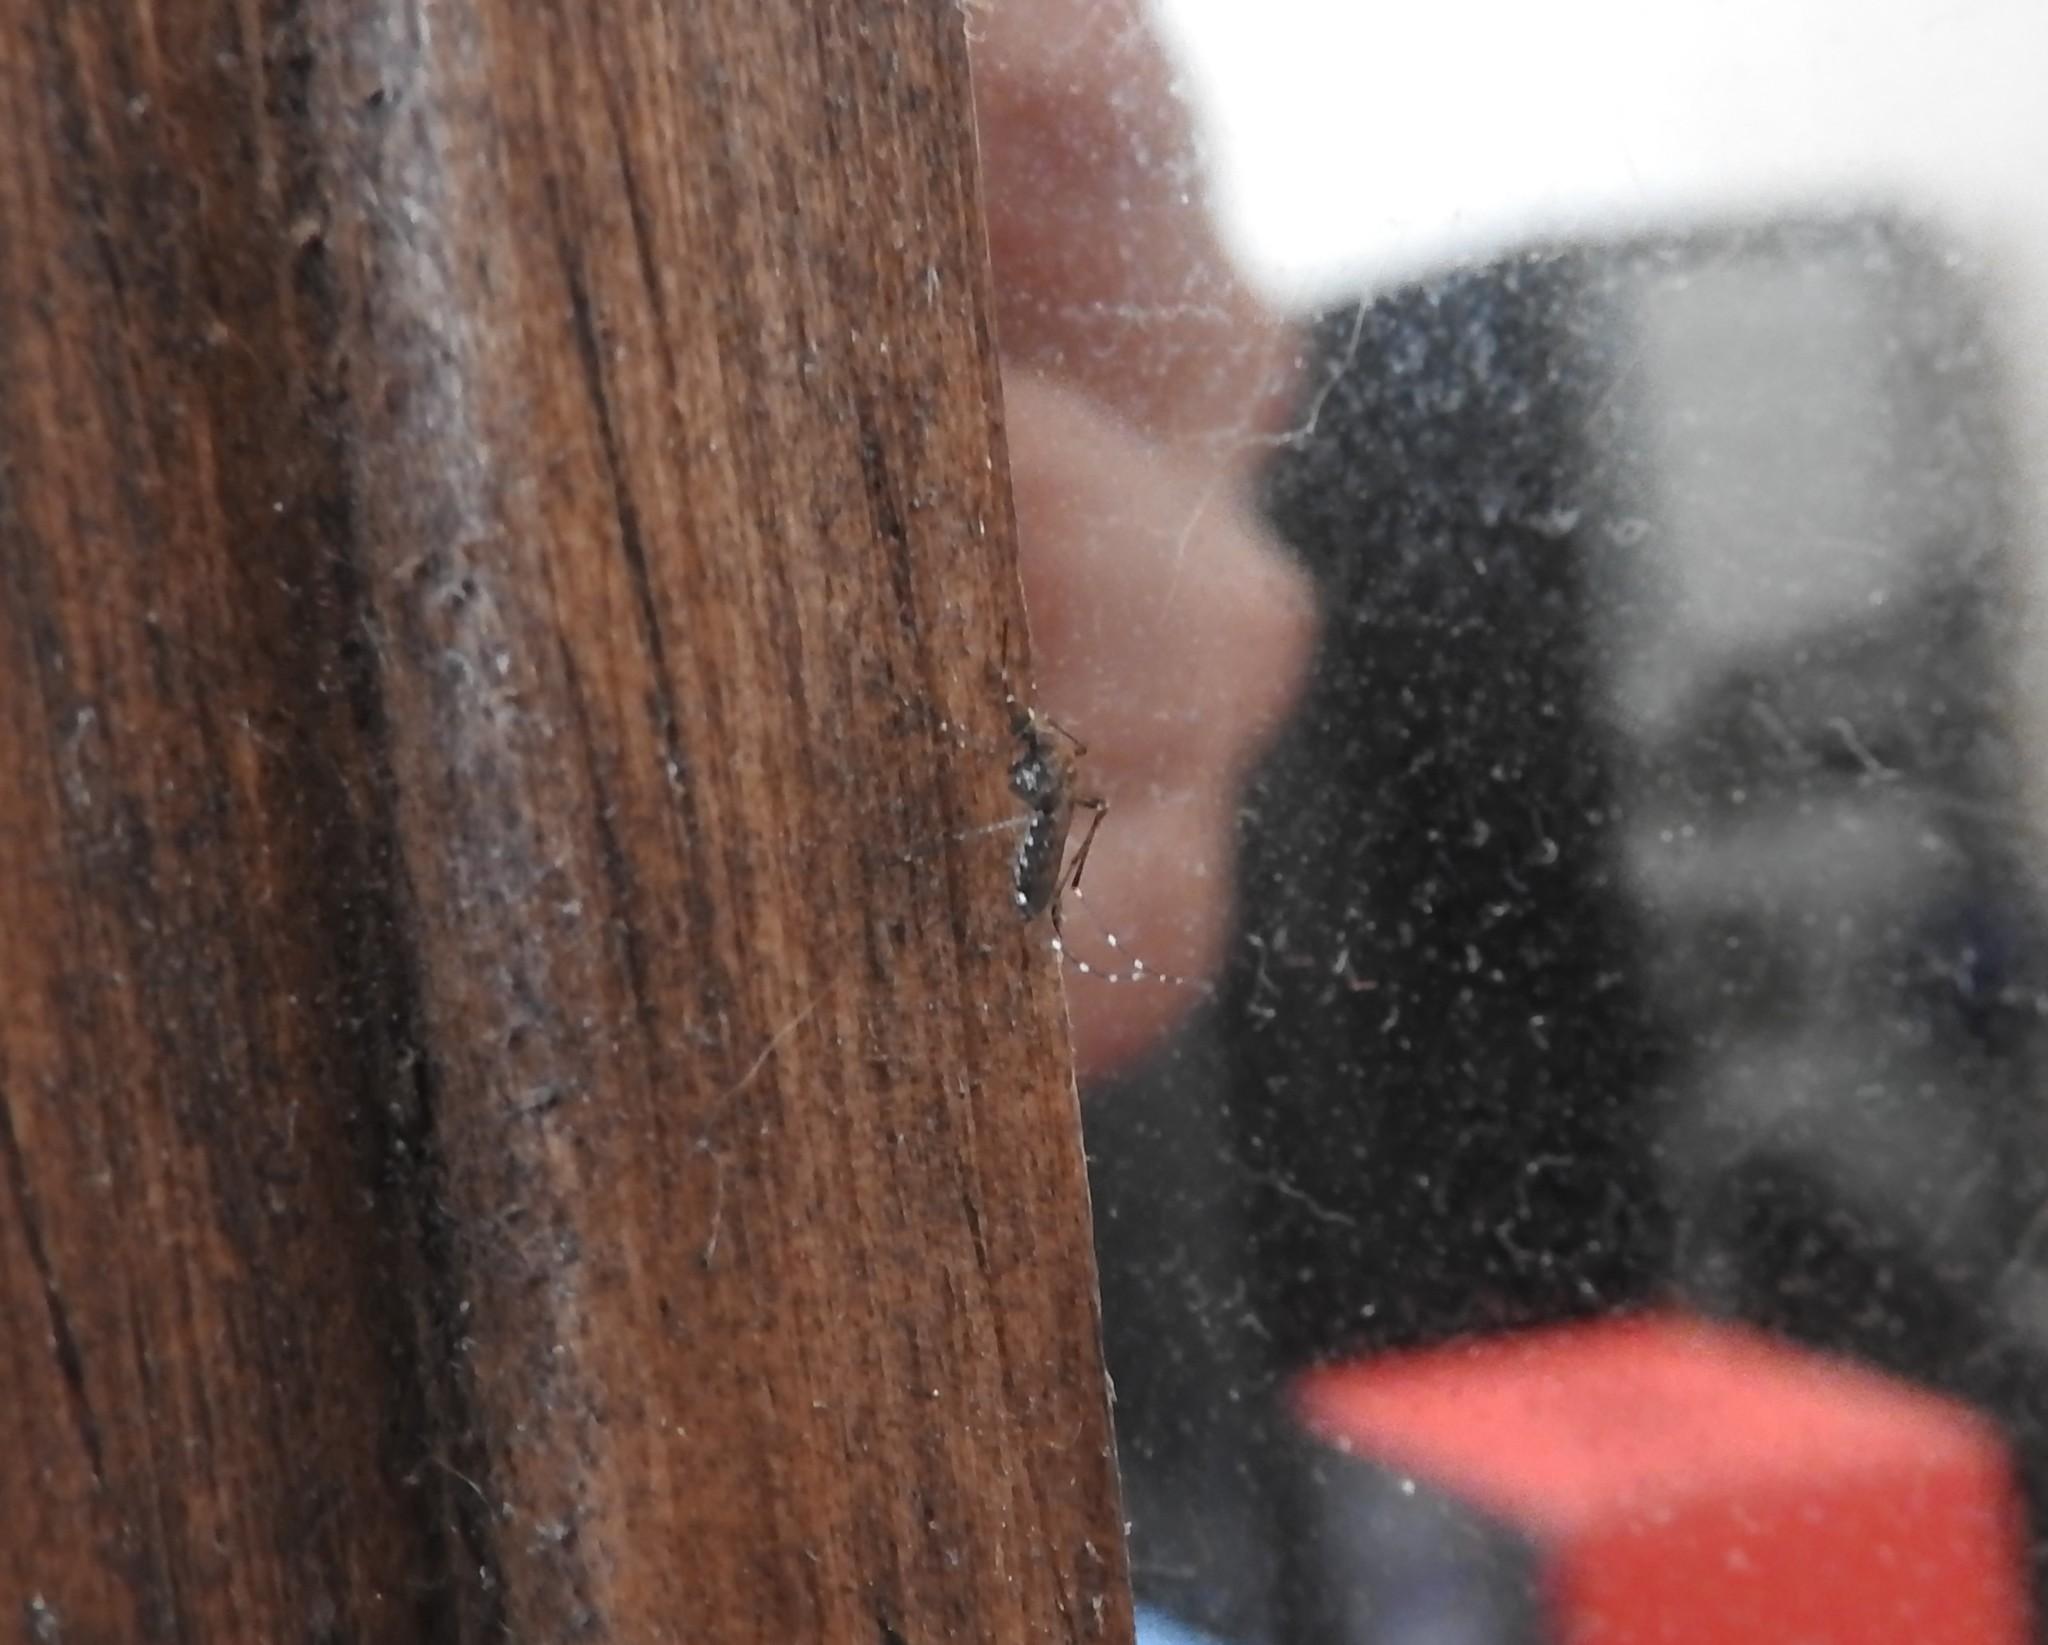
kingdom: Animalia
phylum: Arthropoda
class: Insecta
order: Diptera
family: Culicidae
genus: Aedes
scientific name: Aedes taeniorhynchus
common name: Black salt marsh mosquito
